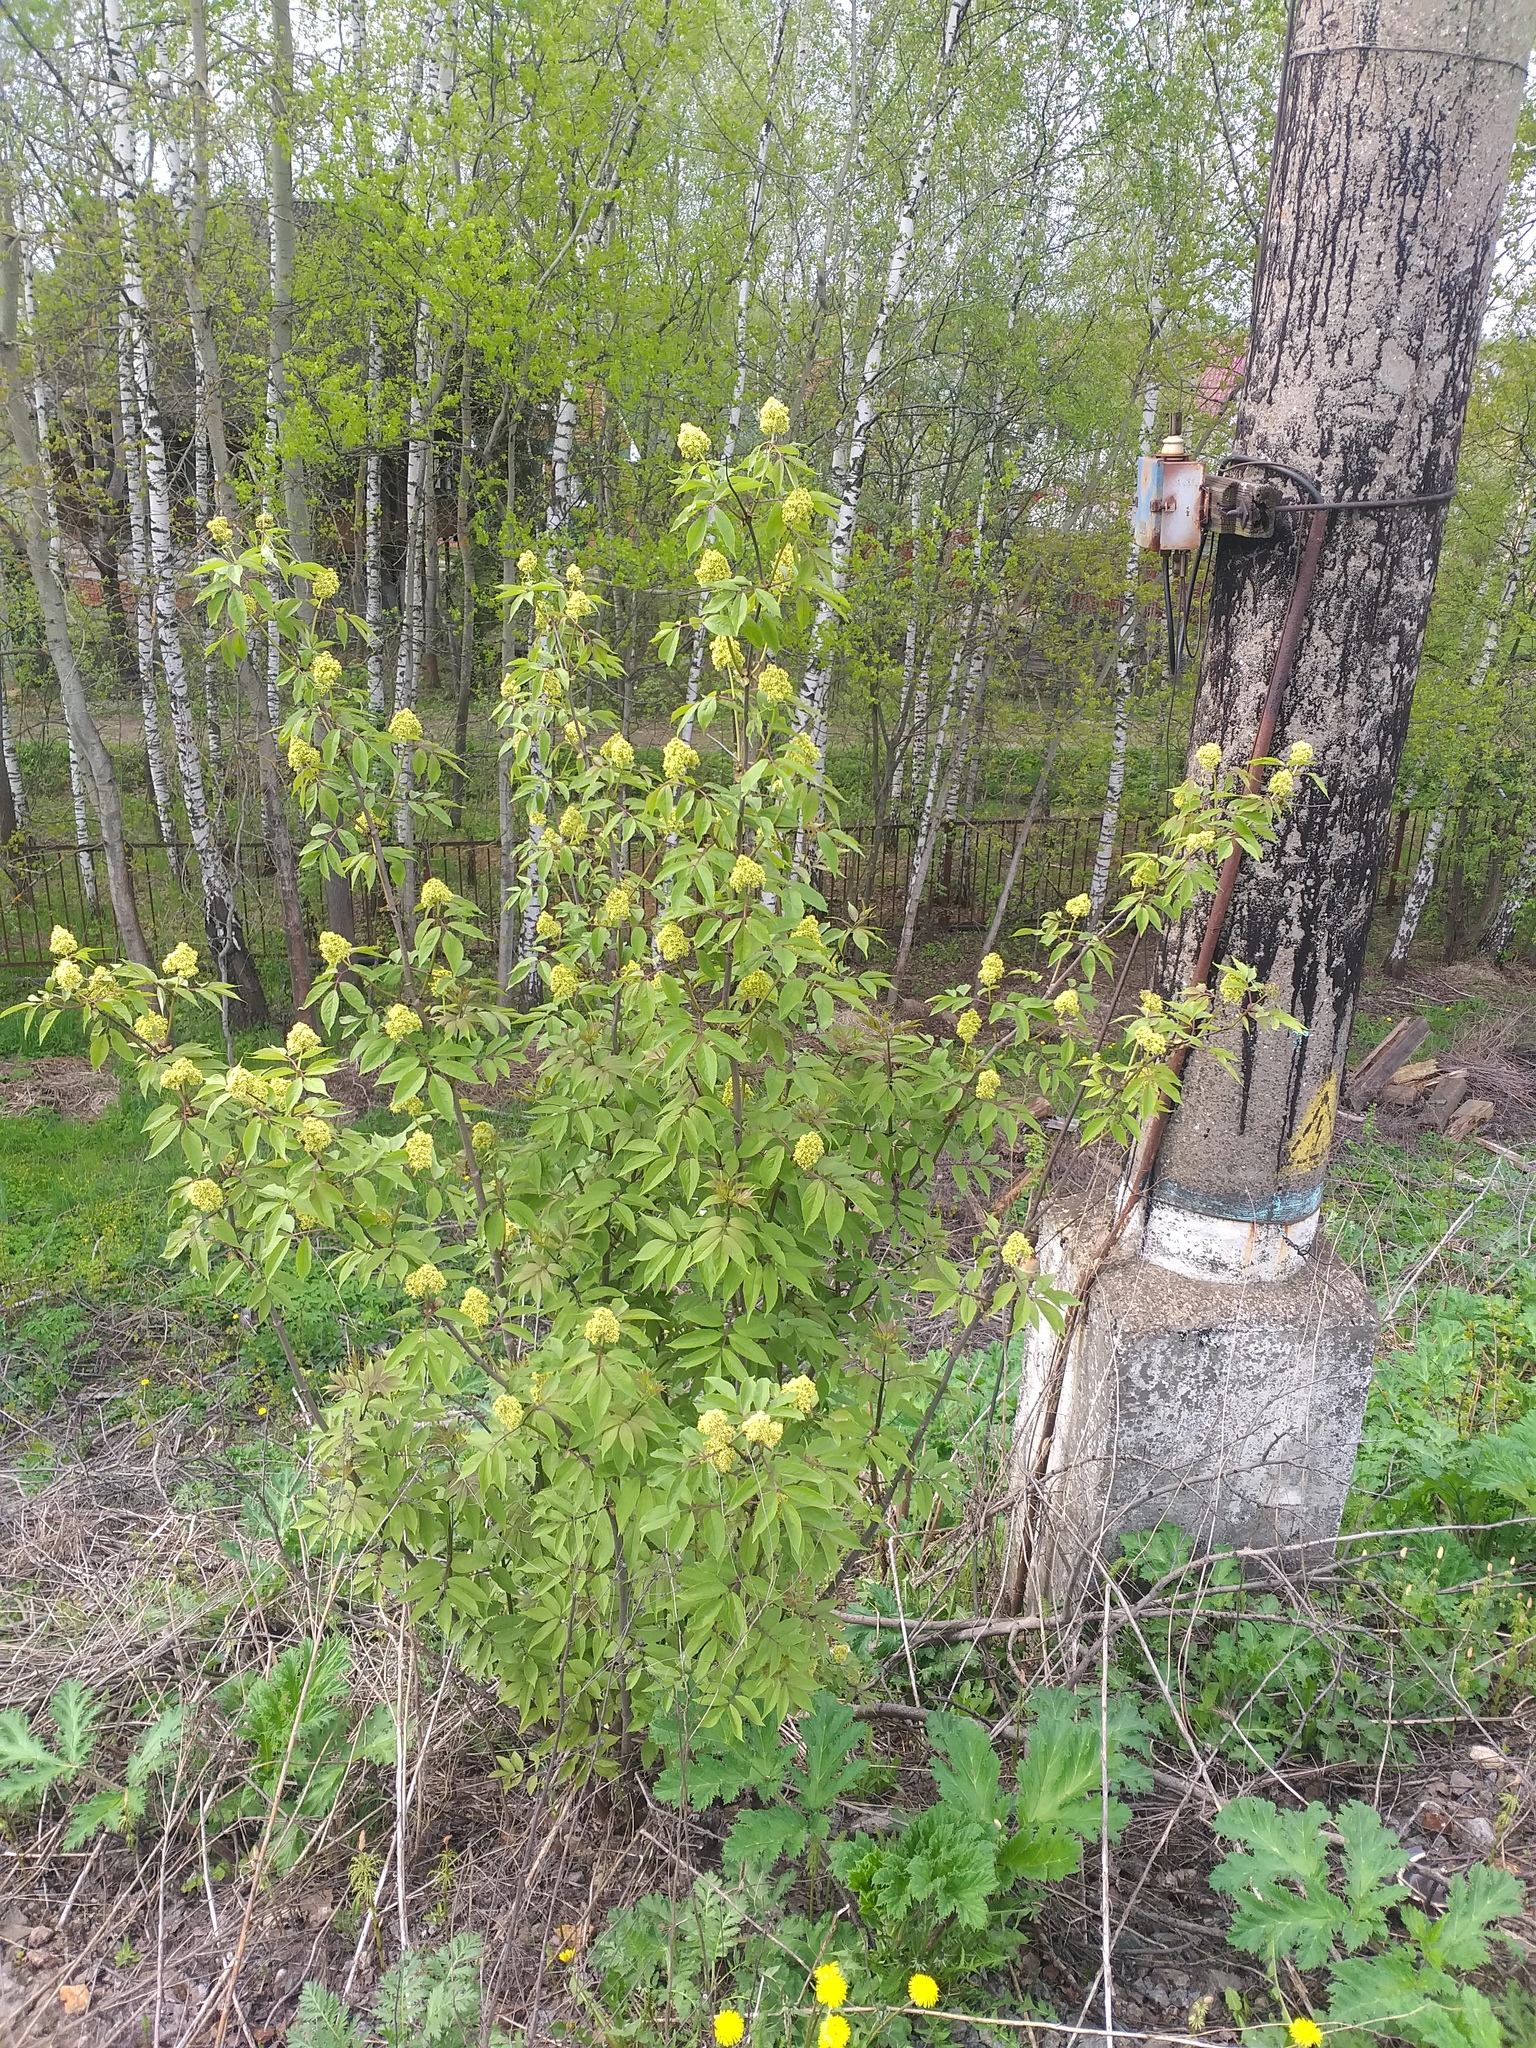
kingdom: Plantae
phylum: Tracheophyta
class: Magnoliopsida
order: Dipsacales
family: Viburnaceae
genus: Sambucus
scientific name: Sambucus racemosa
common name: Red-berried elder
